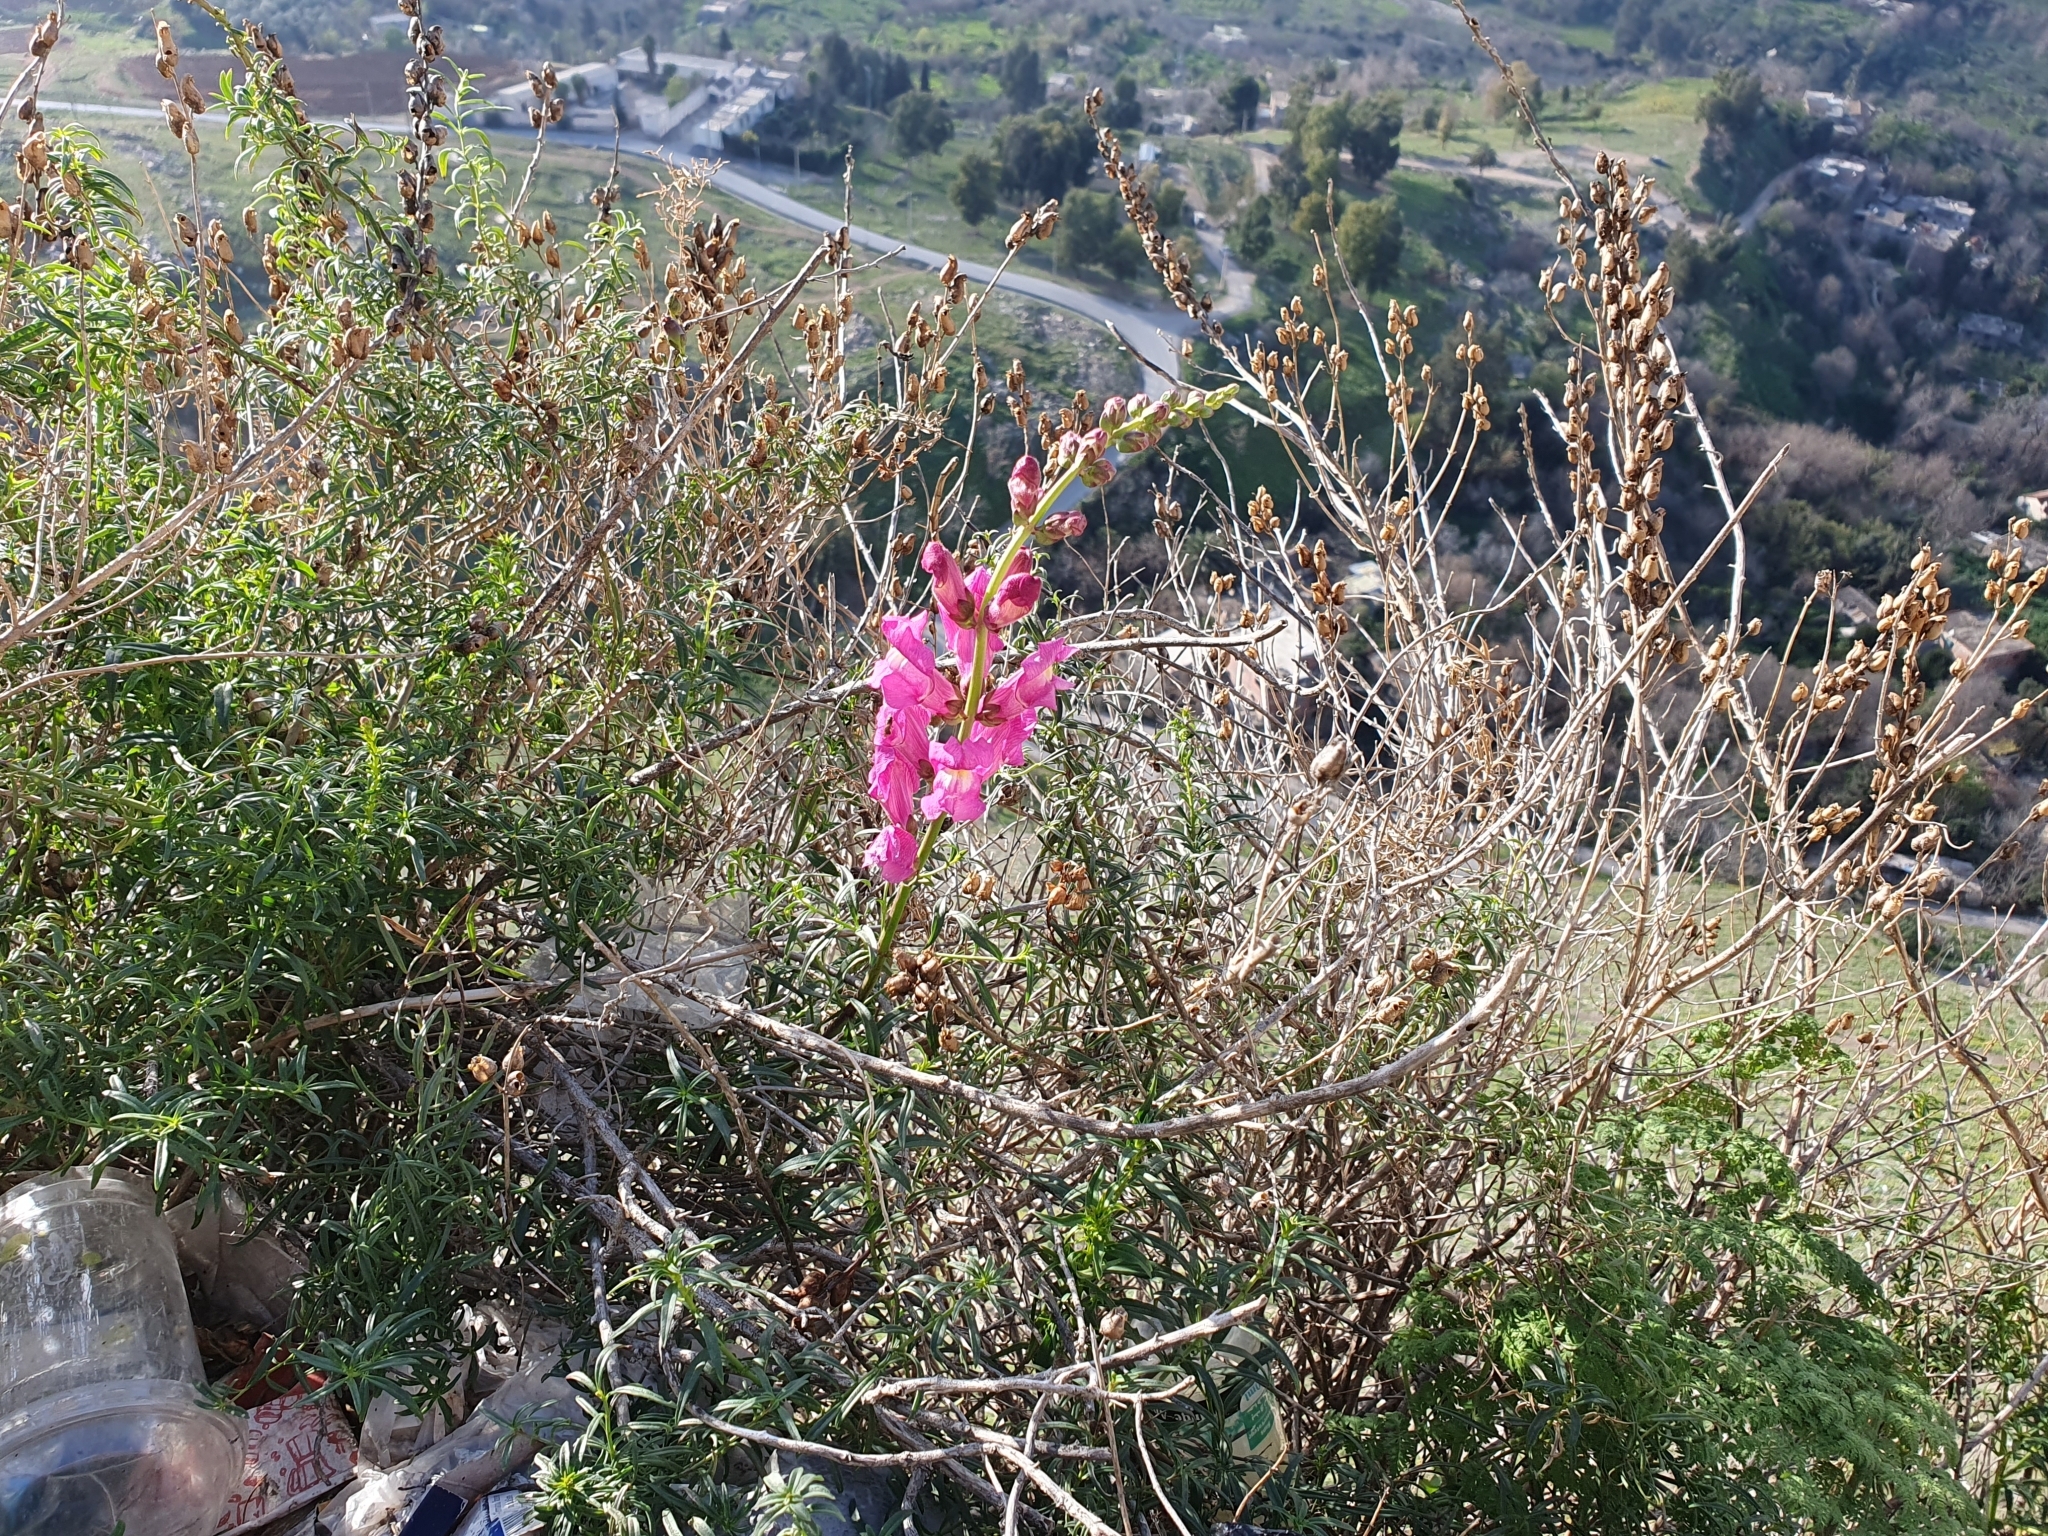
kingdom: Plantae
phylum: Tracheophyta
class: Magnoliopsida
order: Lamiales
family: Plantaginaceae
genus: Antirrhinum
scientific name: Antirrhinum tortuosum
